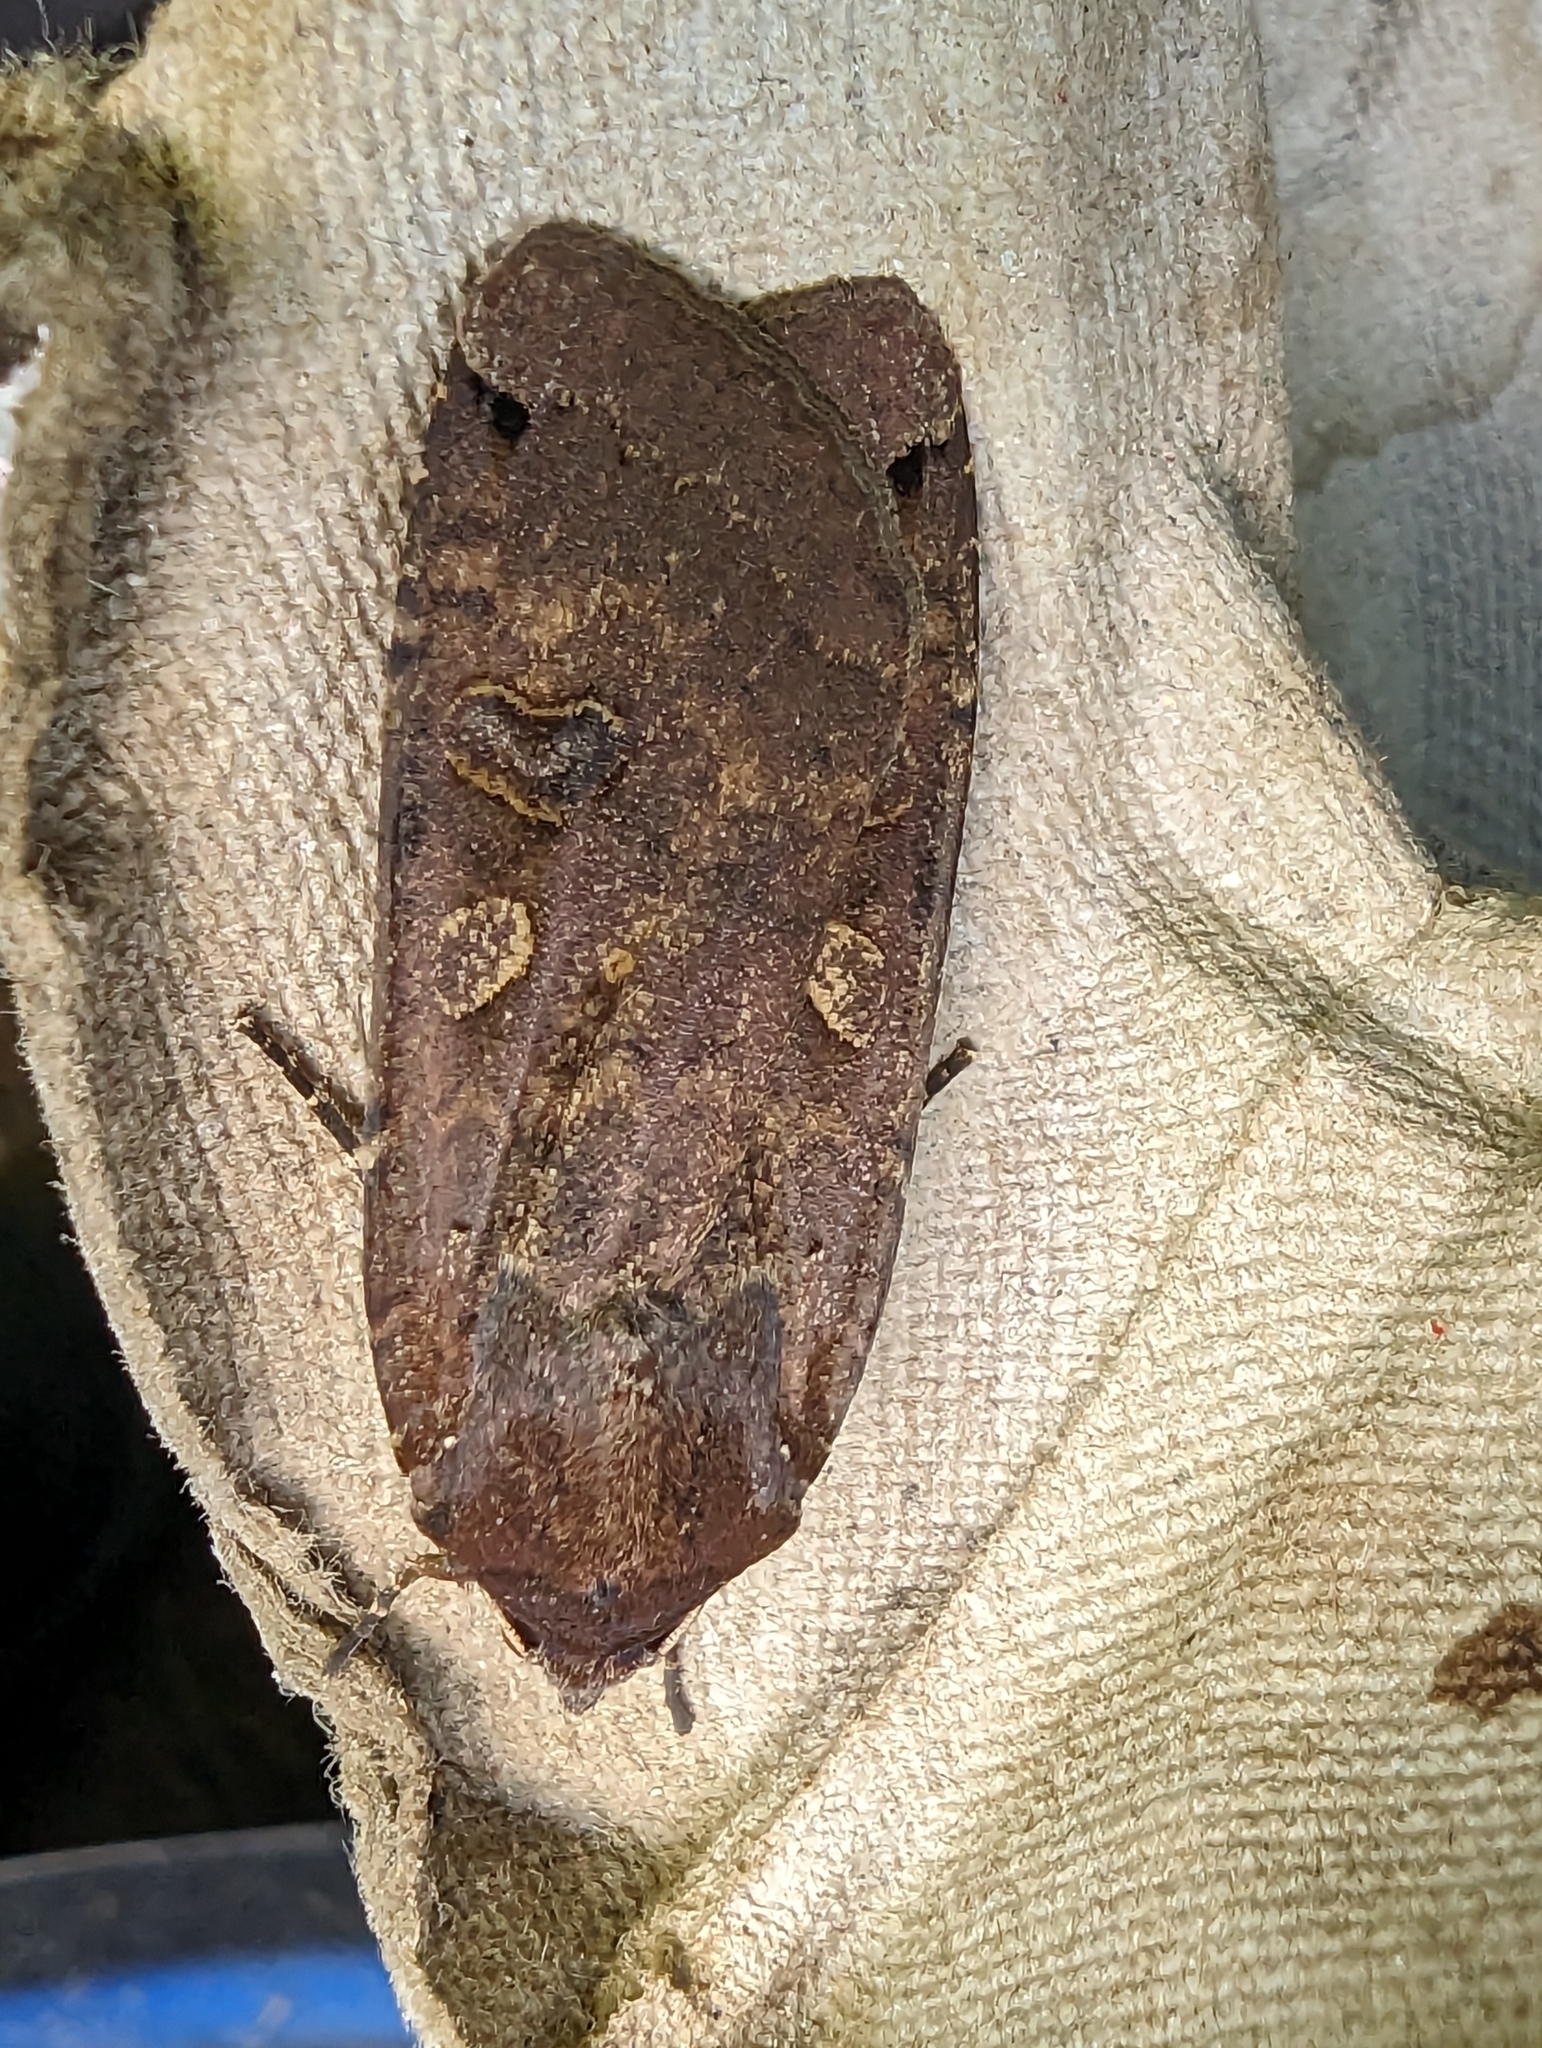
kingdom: Animalia
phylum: Arthropoda
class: Insecta
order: Lepidoptera
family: Noctuidae
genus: Noctua
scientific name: Noctua pronuba
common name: Large yellow underwing
